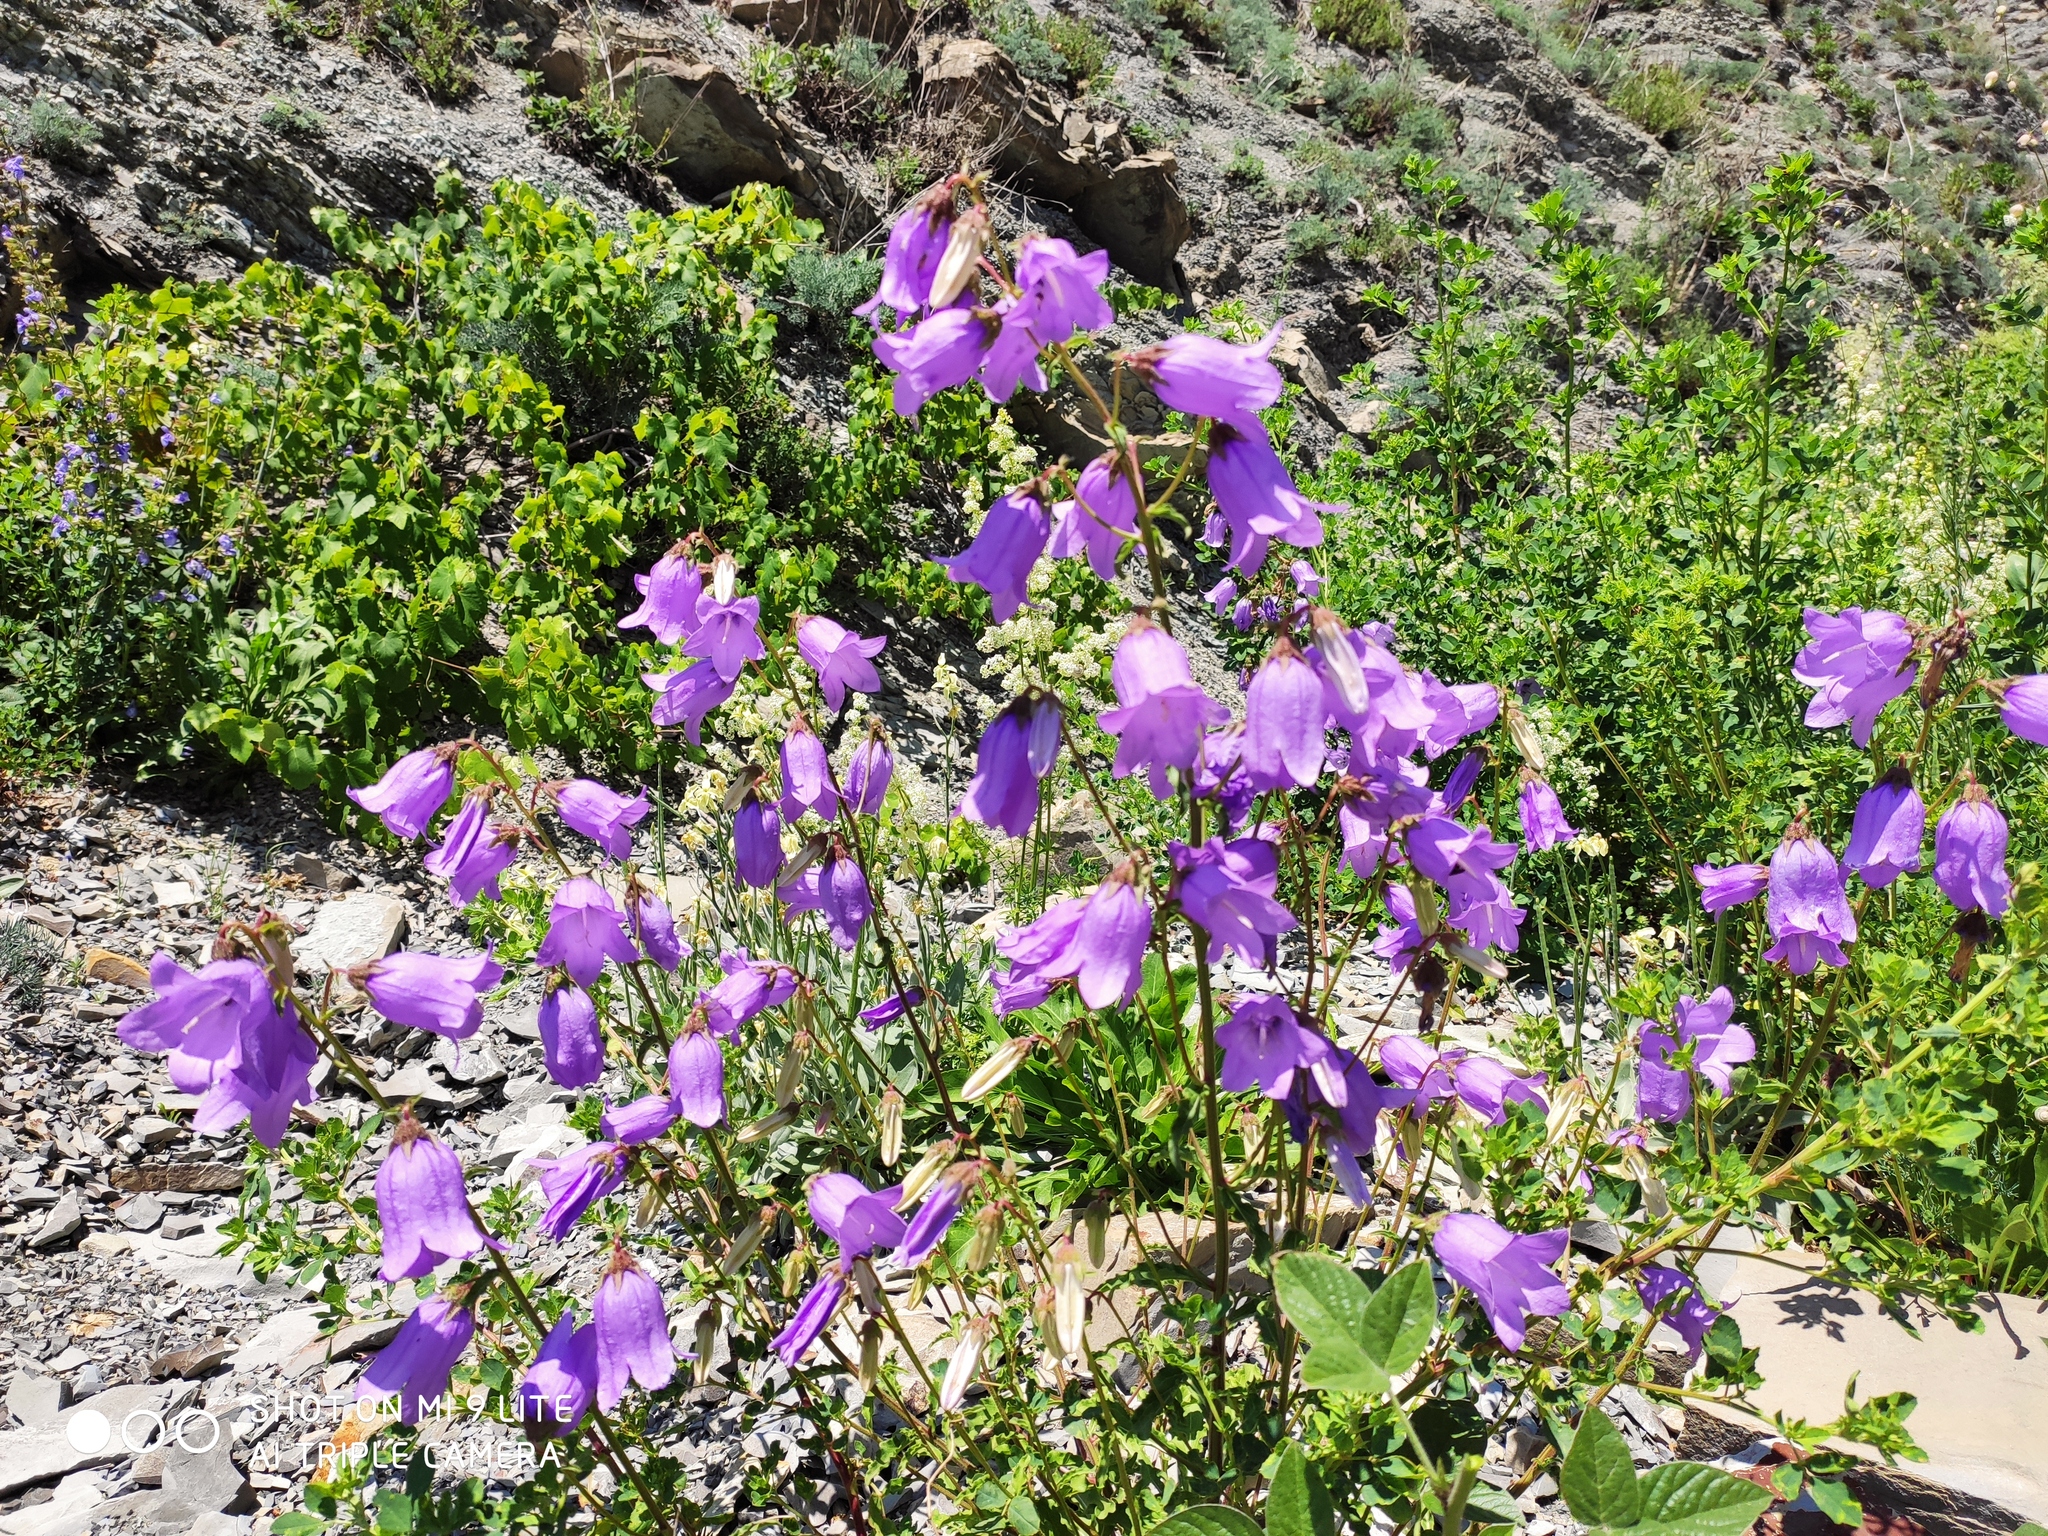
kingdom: Plantae
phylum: Tracheophyta
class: Magnoliopsida
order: Asterales
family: Campanulaceae
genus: Campanula
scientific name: Campanula komarovii
